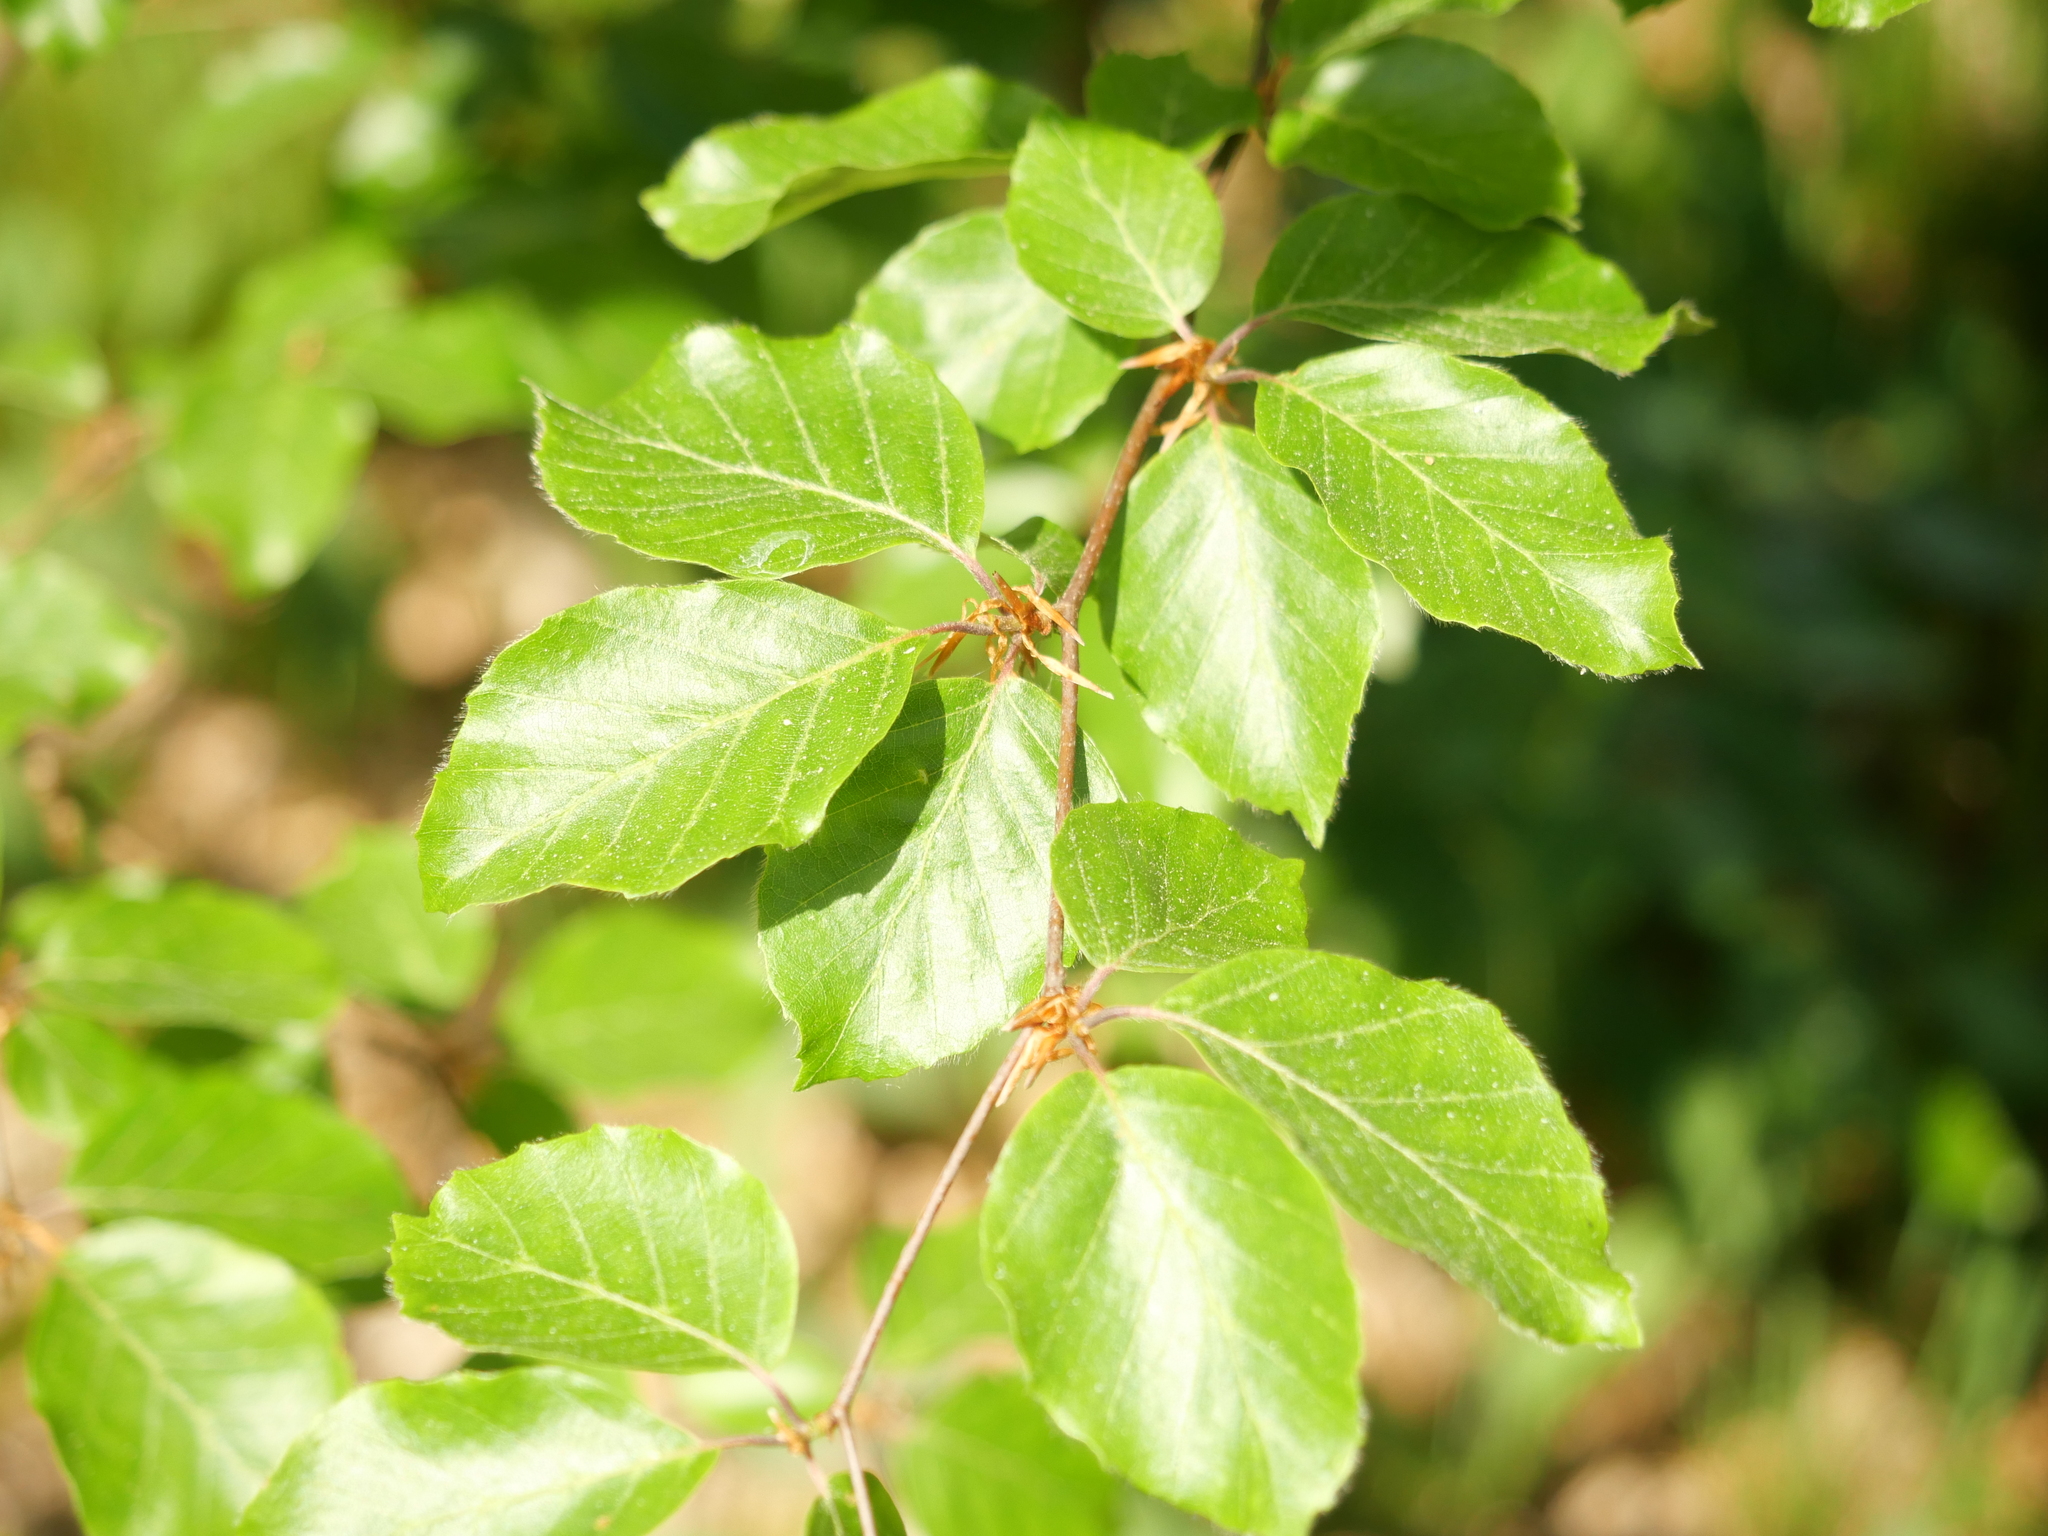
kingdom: Plantae
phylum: Tracheophyta
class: Magnoliopsida
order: Fagales
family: Fagaceae
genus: Fagus
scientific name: Fagus sylvatica
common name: Beech
